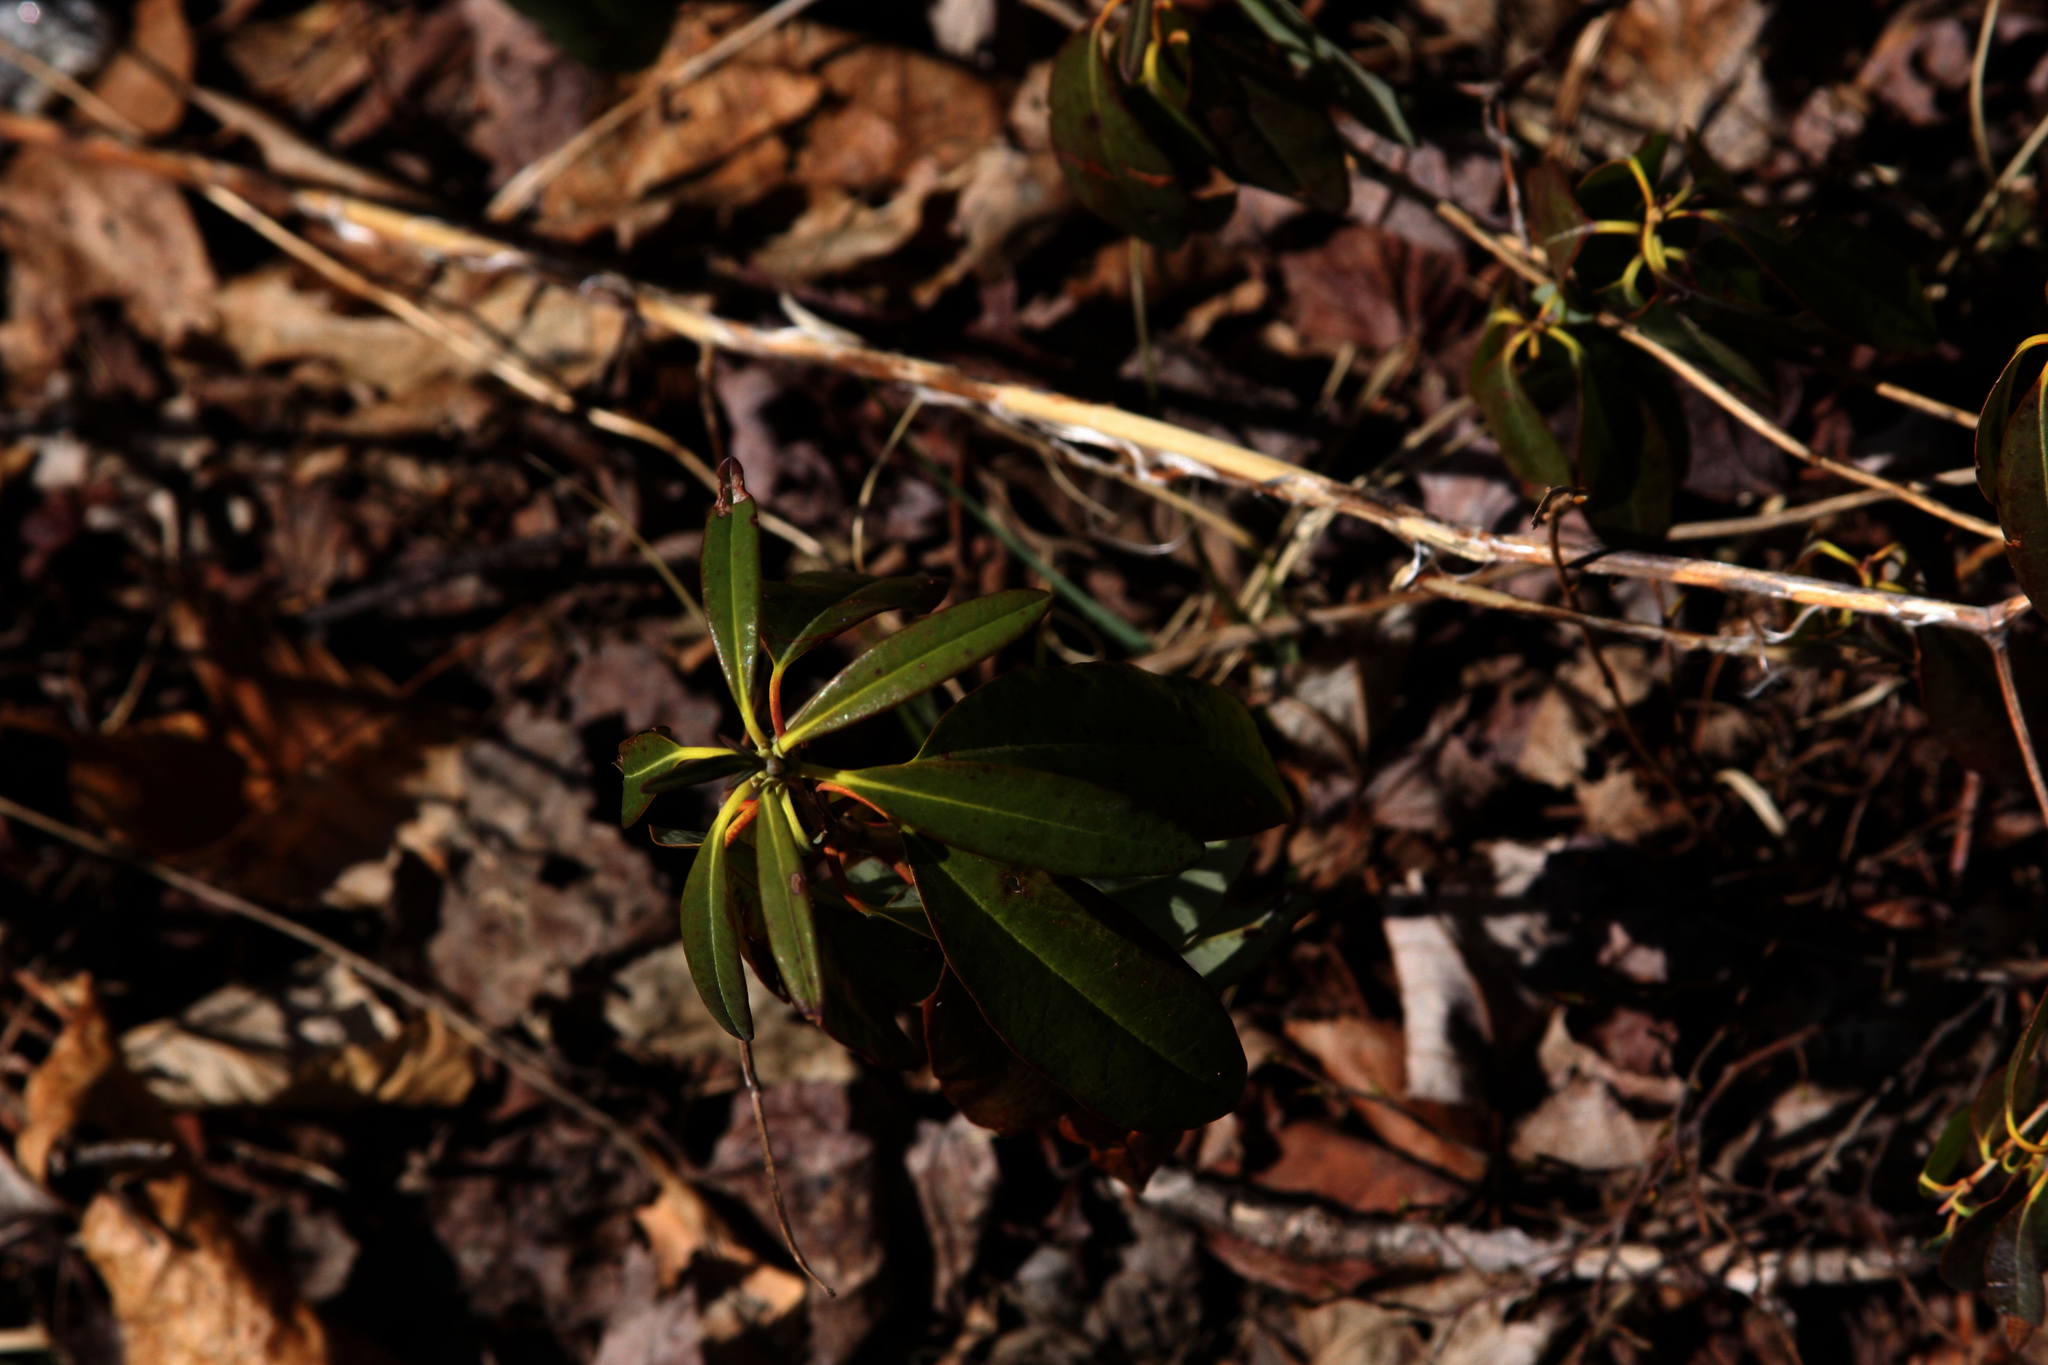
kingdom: Plantae
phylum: Tracheophyta
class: Magnoliopsida
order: Ericales
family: Ericaceae
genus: Kalmia
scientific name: Kalmia angustifolia
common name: Sheep-laurel
